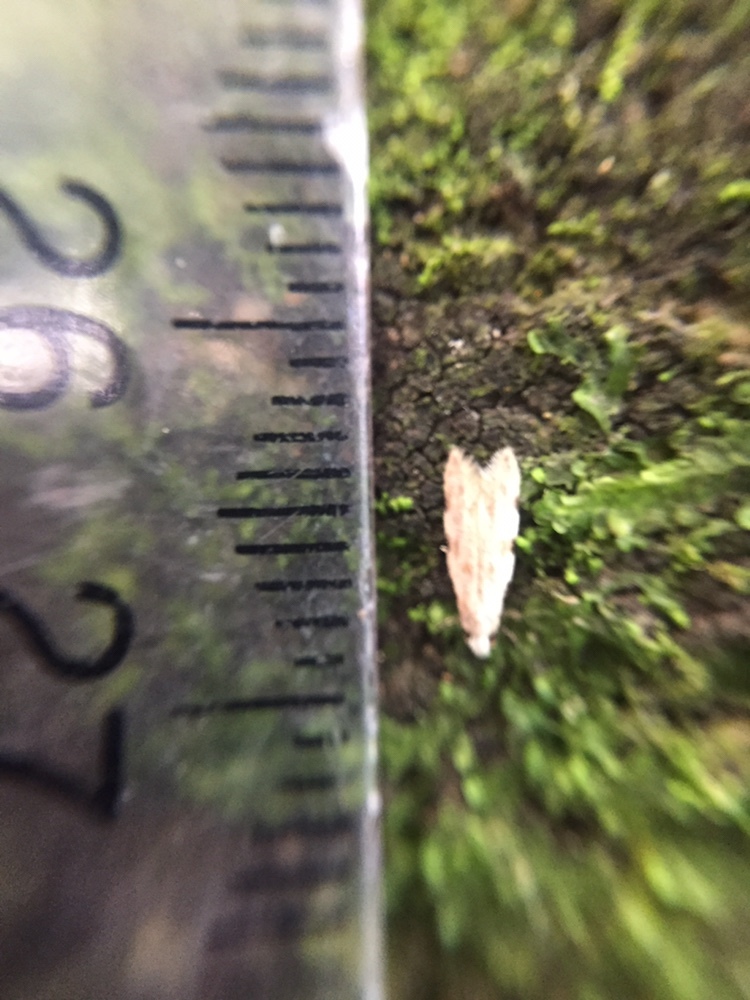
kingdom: Animalia
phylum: Arthropoda
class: Insecta
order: Lepidoptera
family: Tineidae
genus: Endophthora
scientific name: Endophthora omogramma
